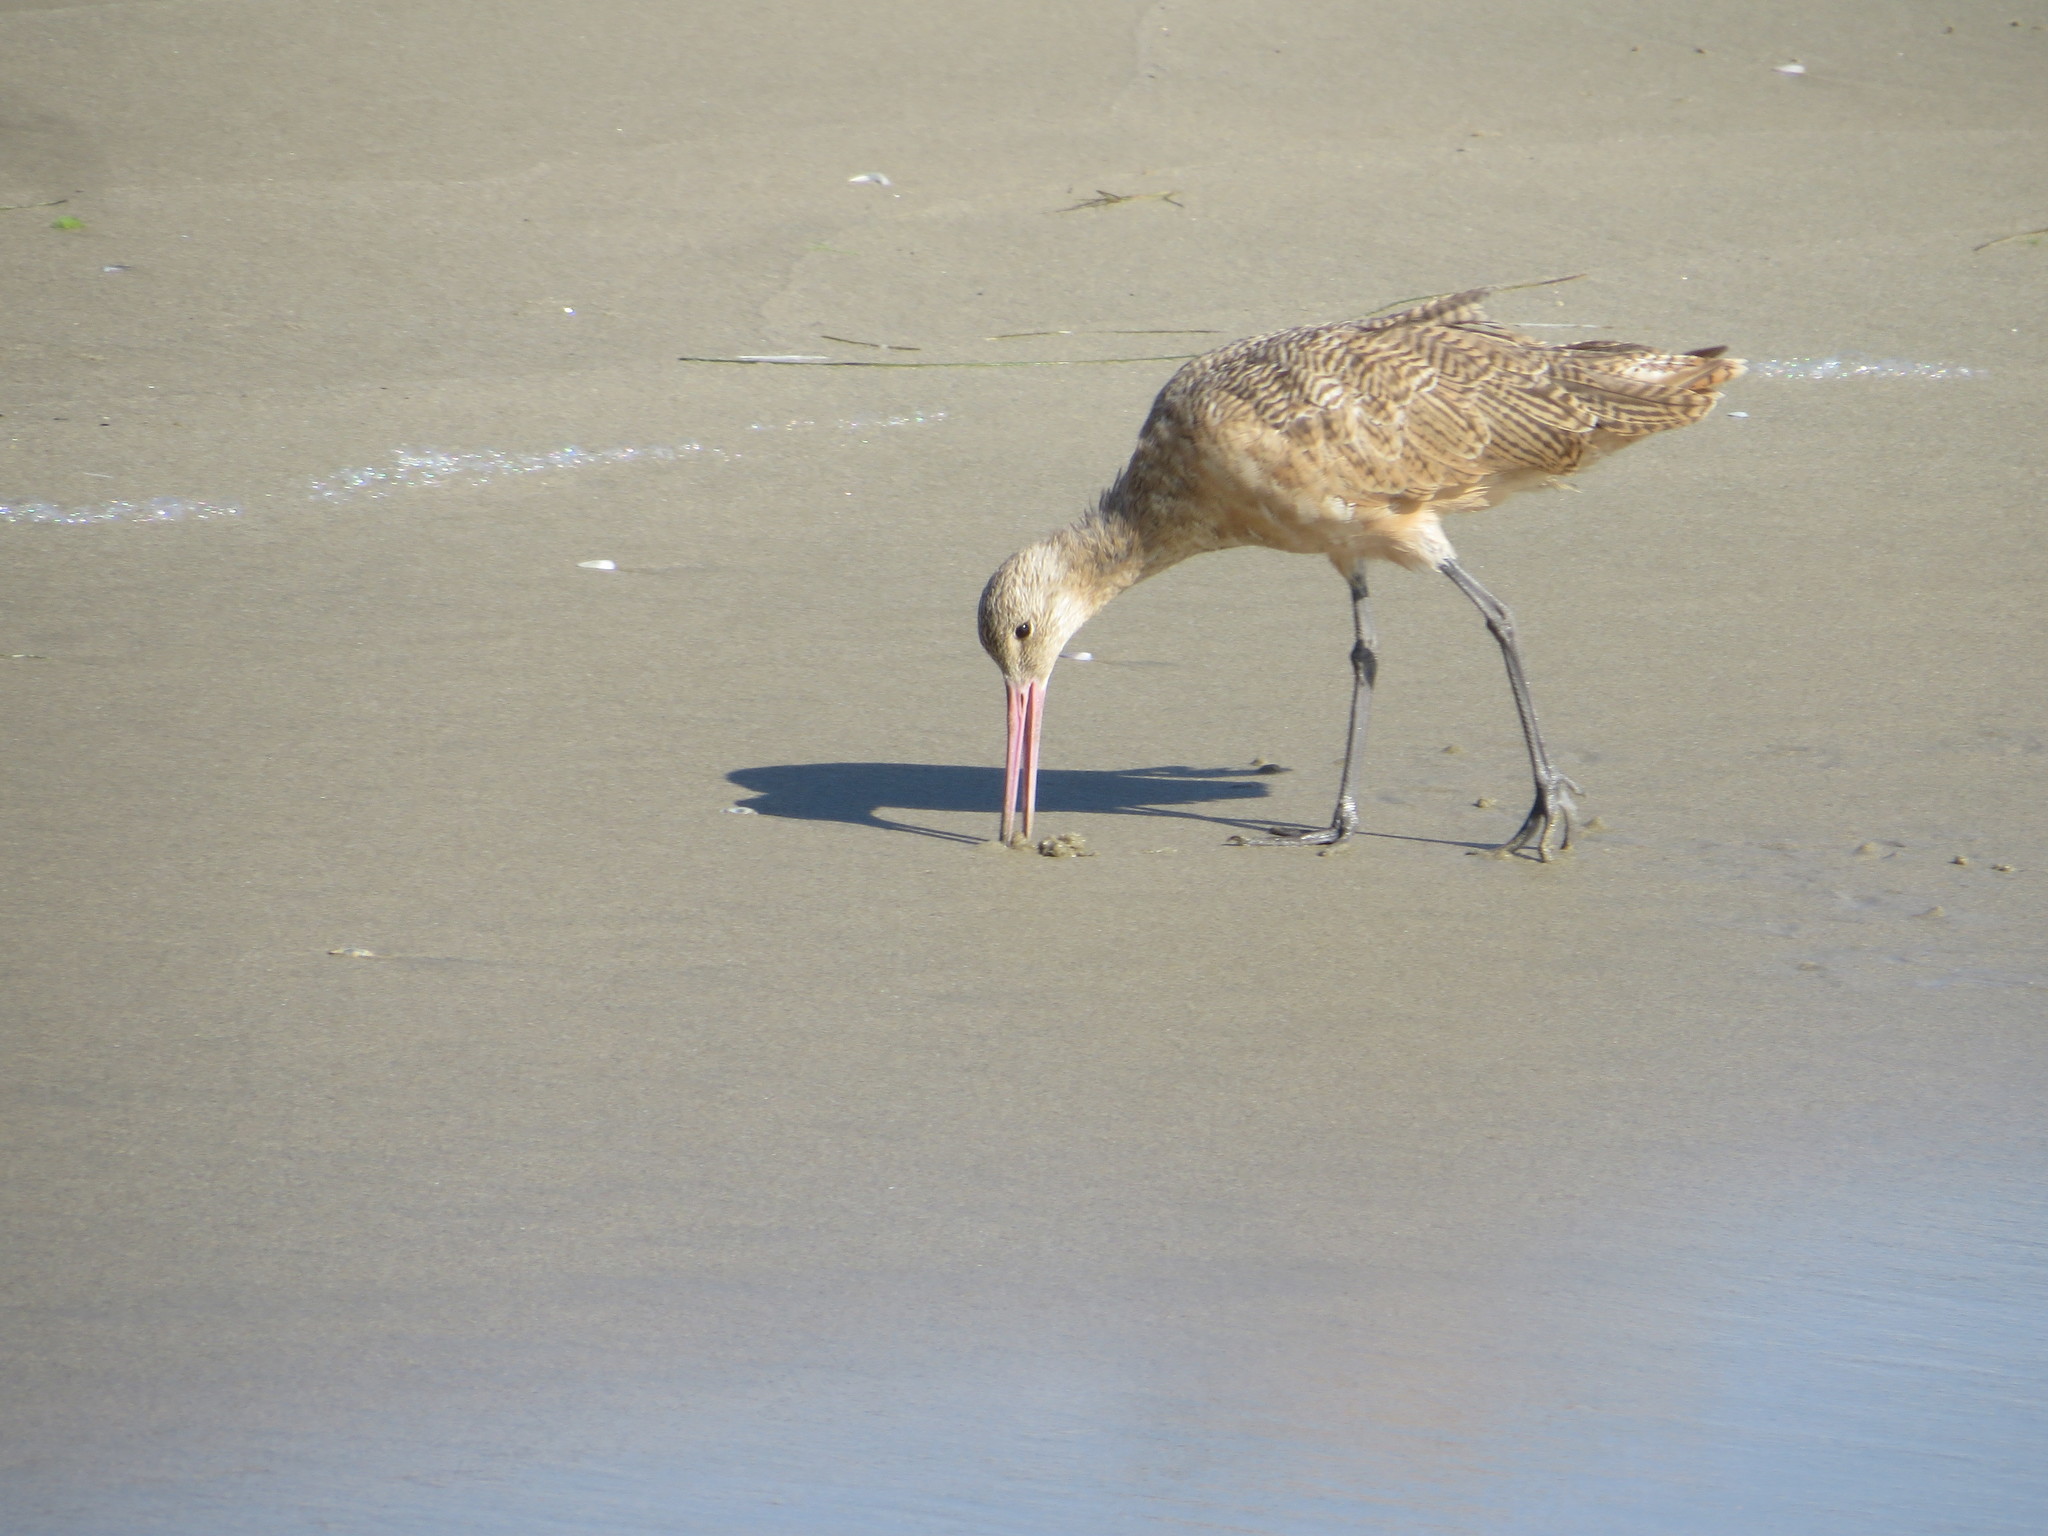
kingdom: Animalia
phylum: Chordata
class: Aves
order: Charadriiformes
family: Scolopacidae
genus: Limosa
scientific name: Limosa fedoa
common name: Marbled godwit
